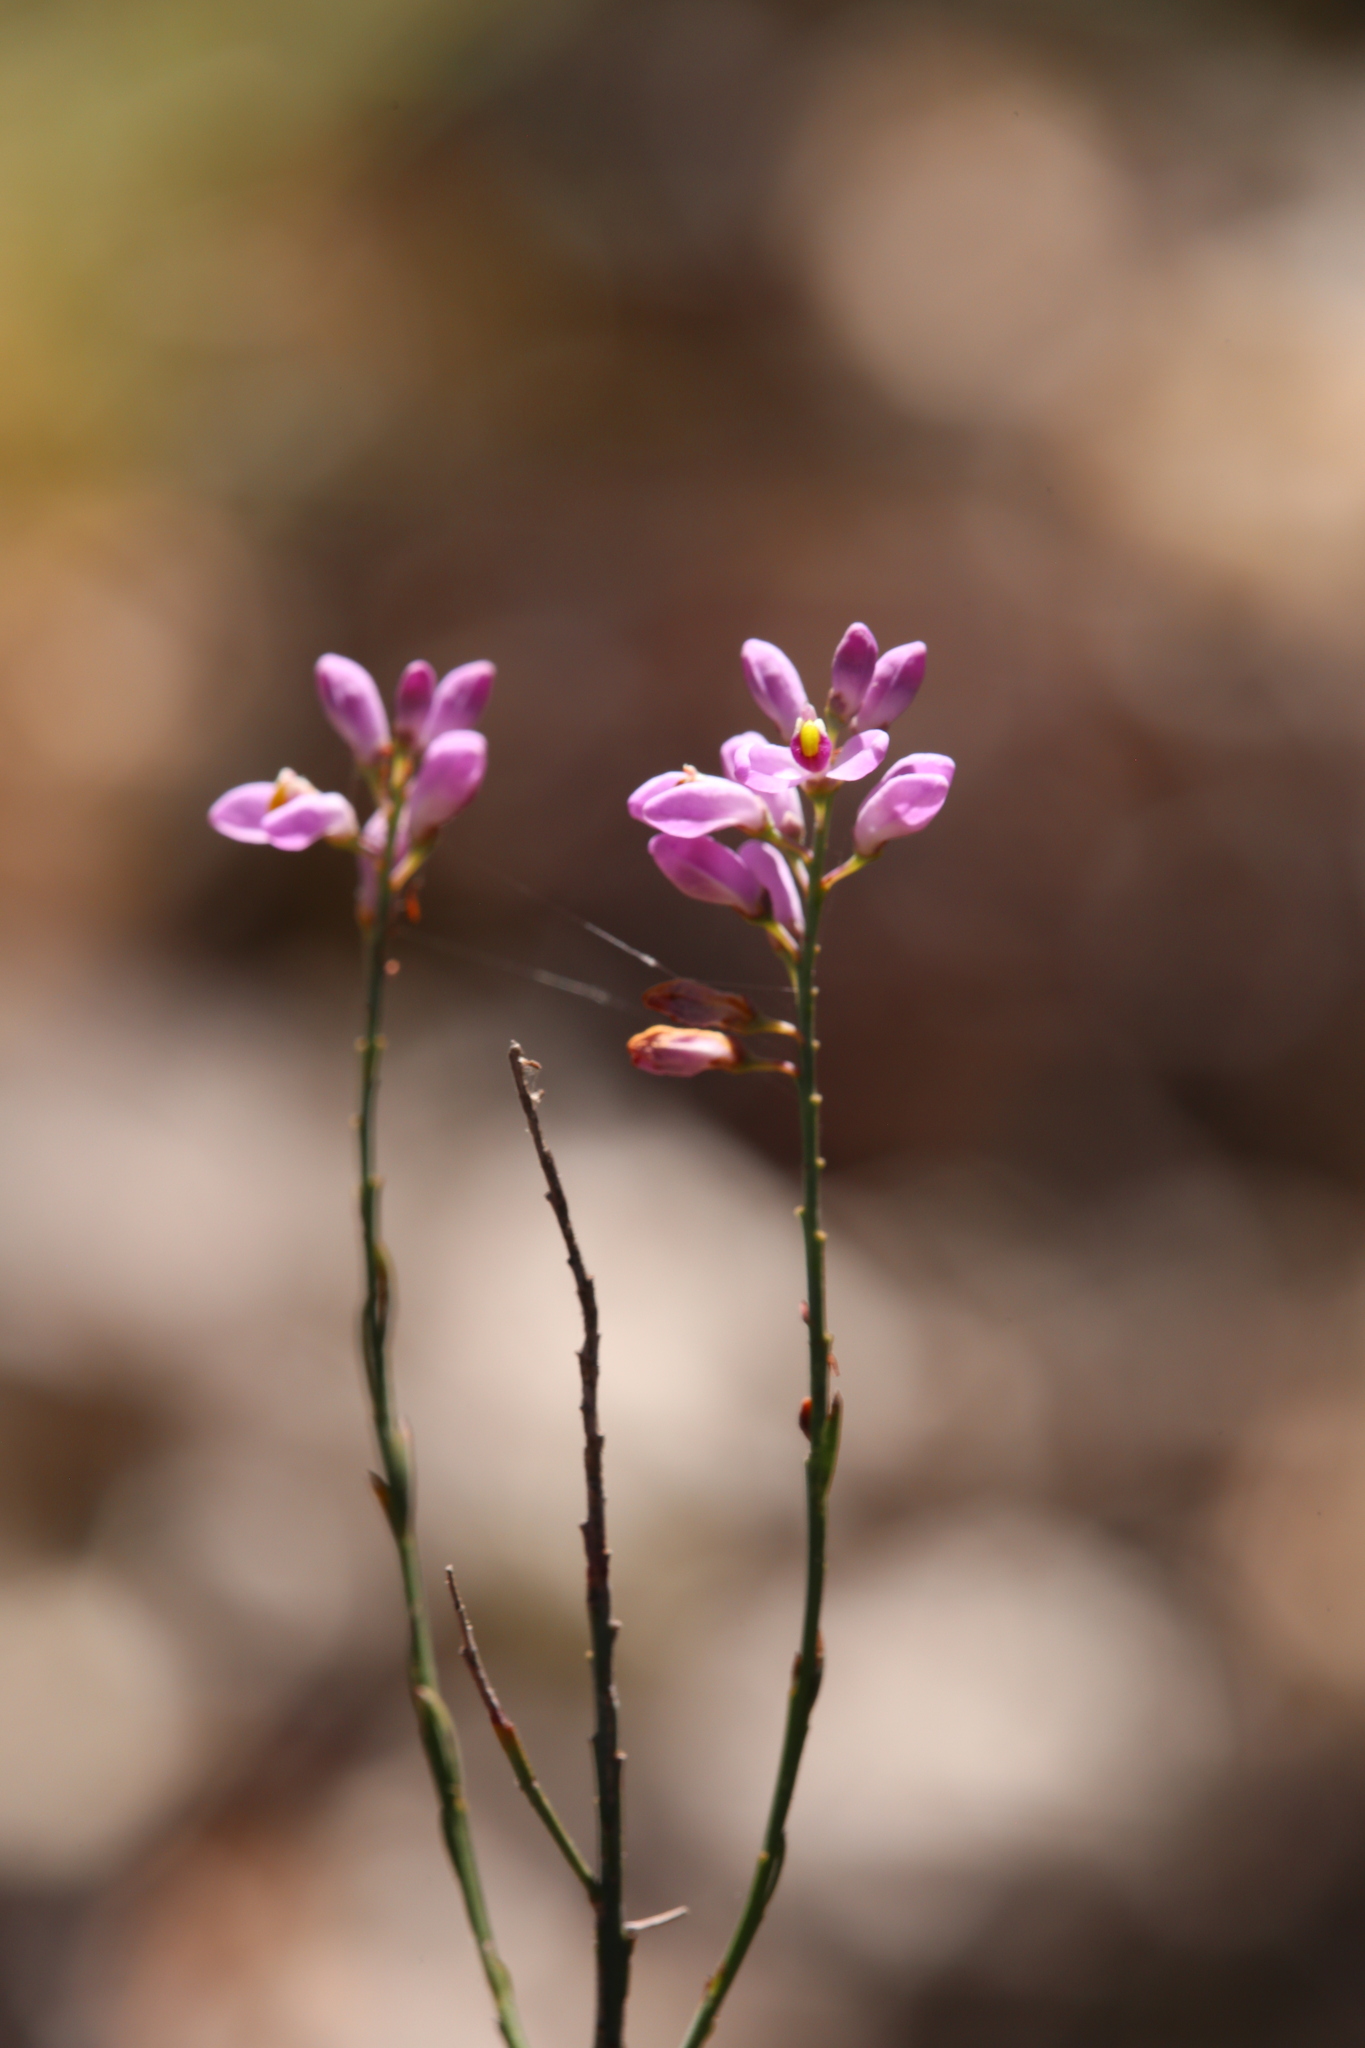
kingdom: Plantae
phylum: Tracheophyta
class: Magnoliopsida
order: Fabales
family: Polygalaceae
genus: Comesperma
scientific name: Comesperma virgatum
